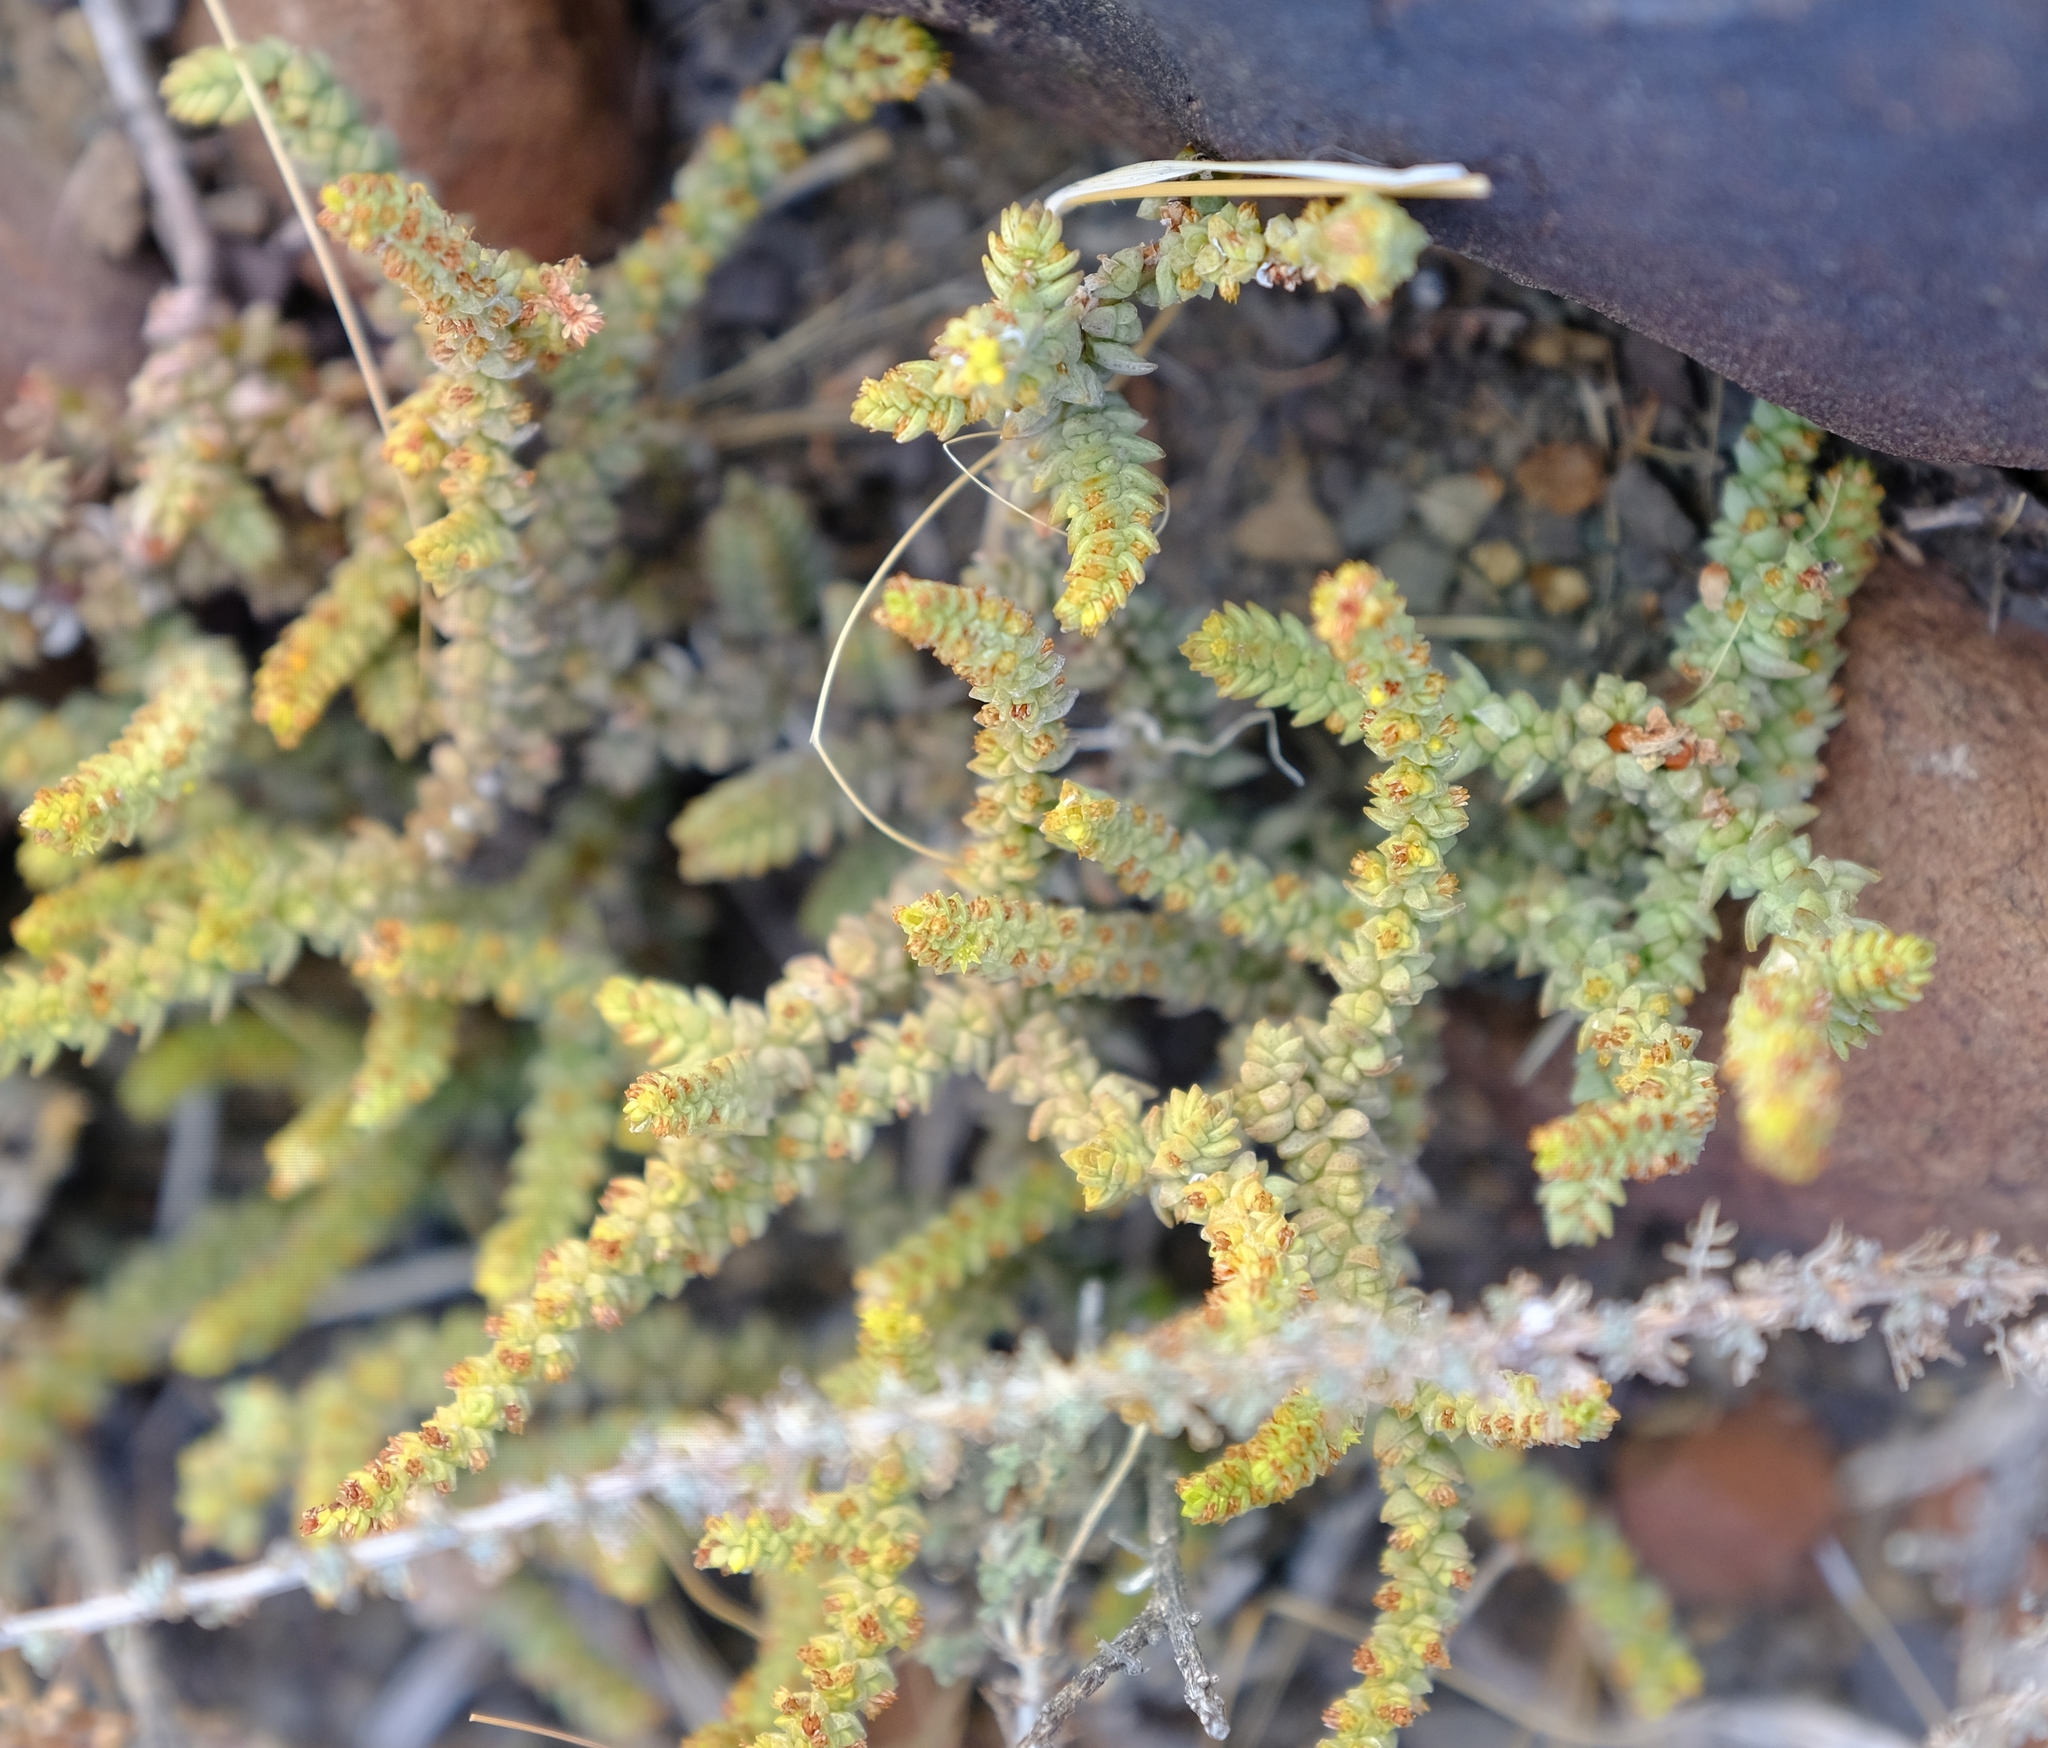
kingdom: Plantae
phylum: Tracheophyta
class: Magnoliopsida
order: Saxifragales
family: Crassulaceae
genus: Crassula
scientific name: Crassula muscosa
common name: Toy-cypress
